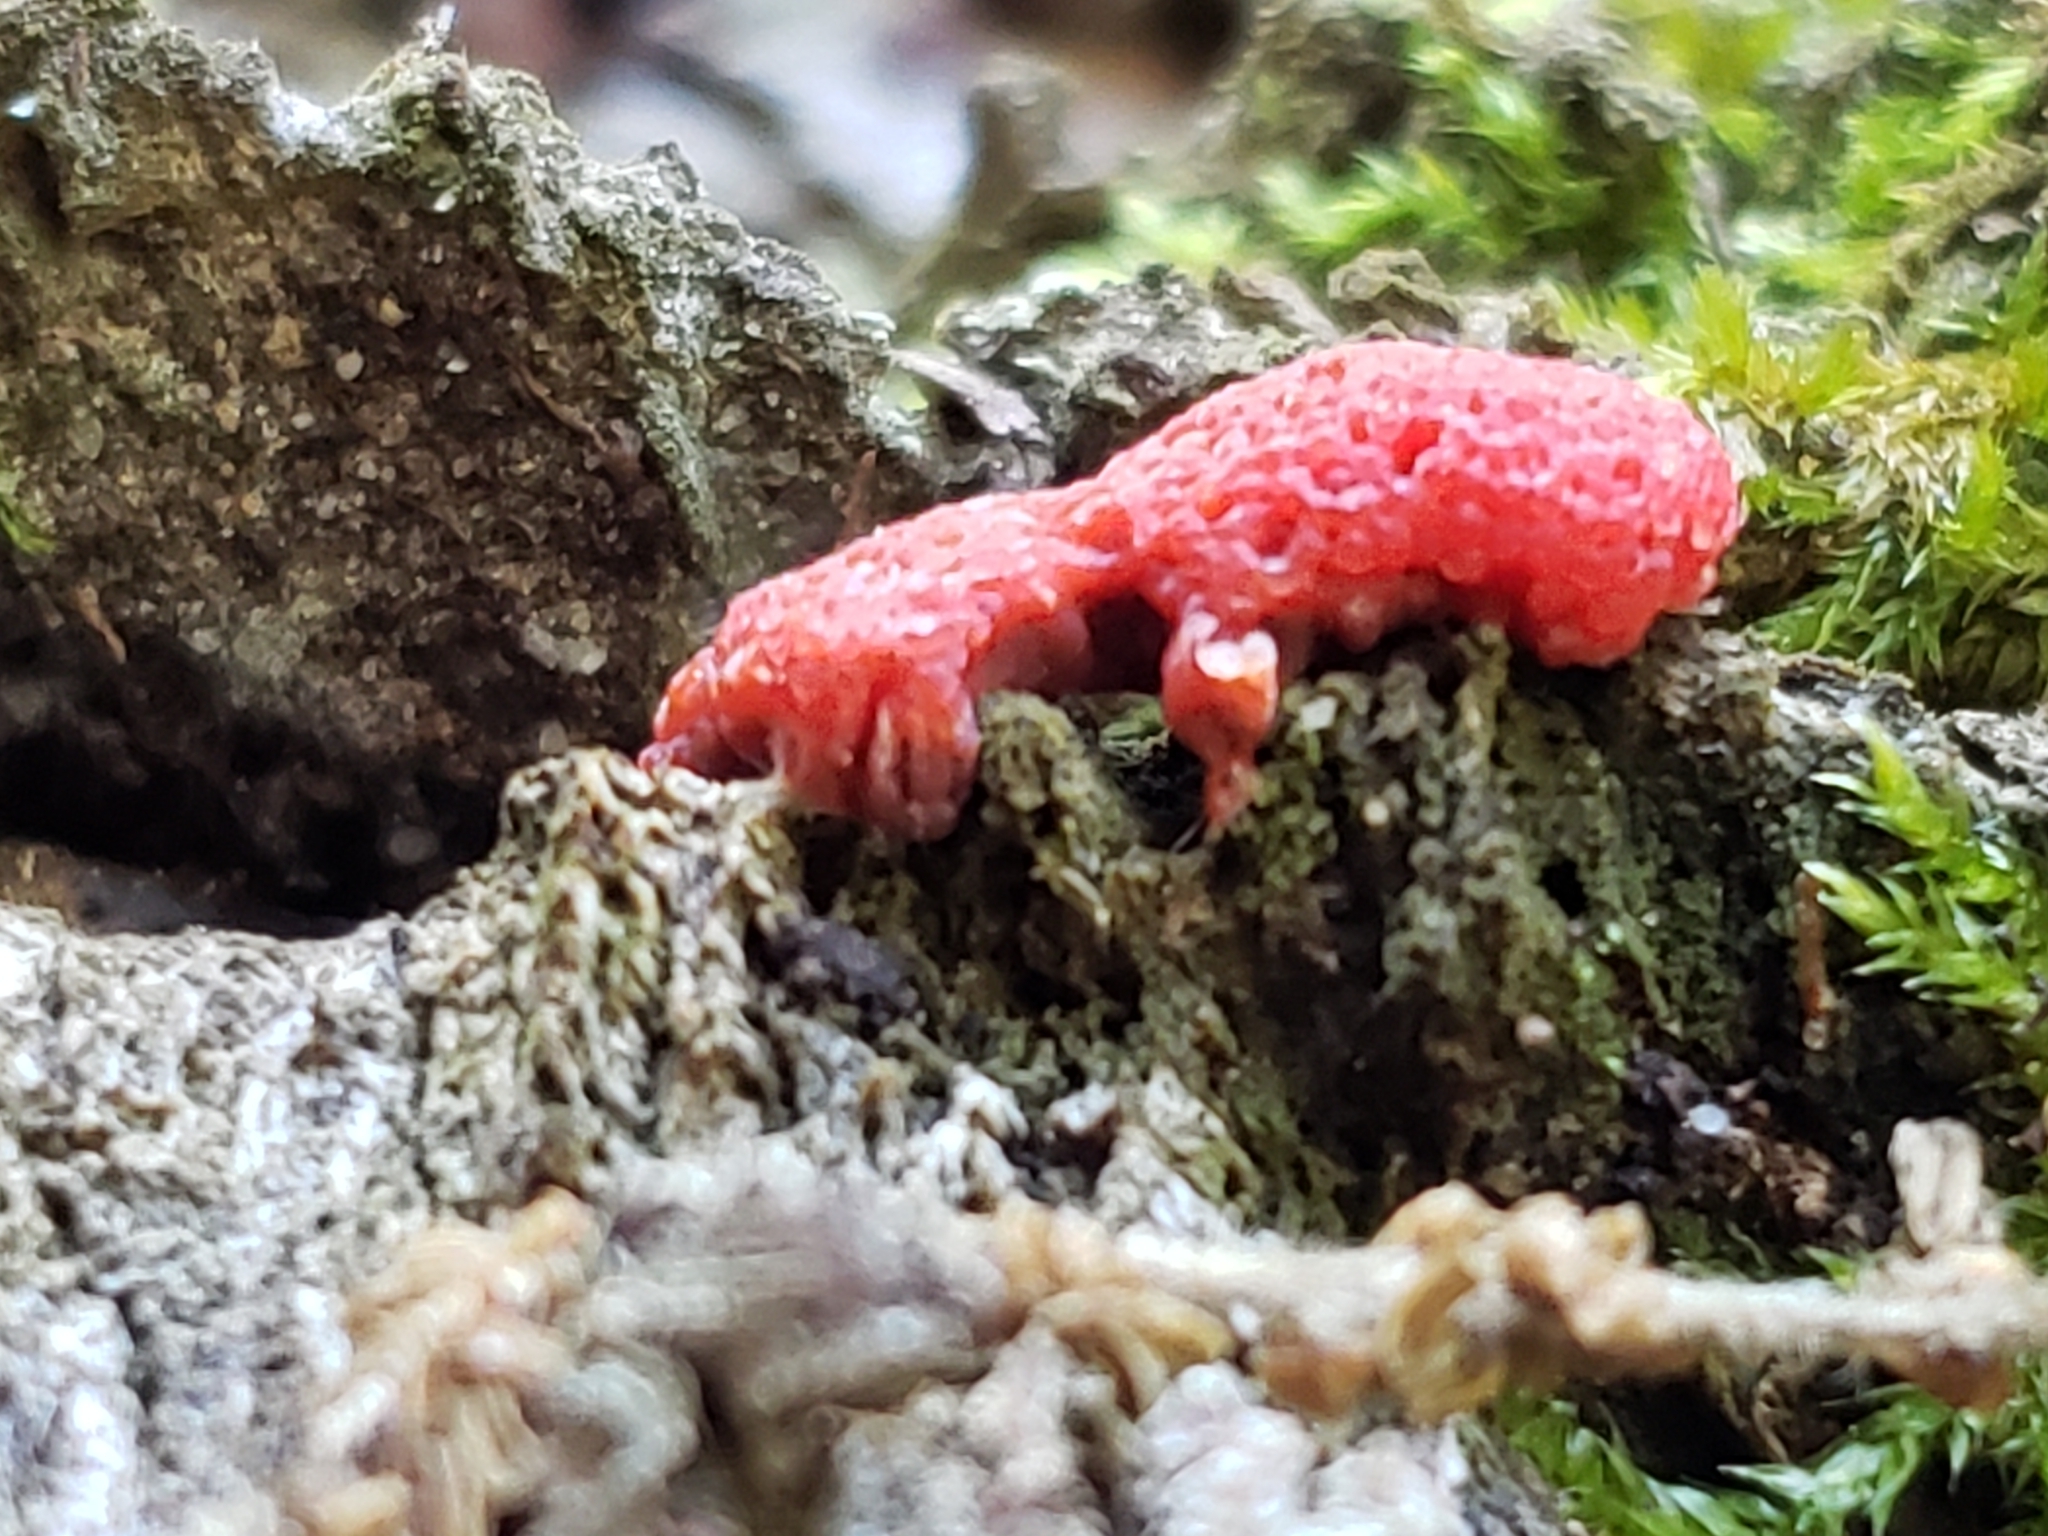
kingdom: Protozoa
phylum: Mycetozoa
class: Myxomycetes
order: Cribrariales
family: Tubiferaceae
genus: Tubifera
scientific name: Tubifera ferruginosa
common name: Red raspberry slime mold
